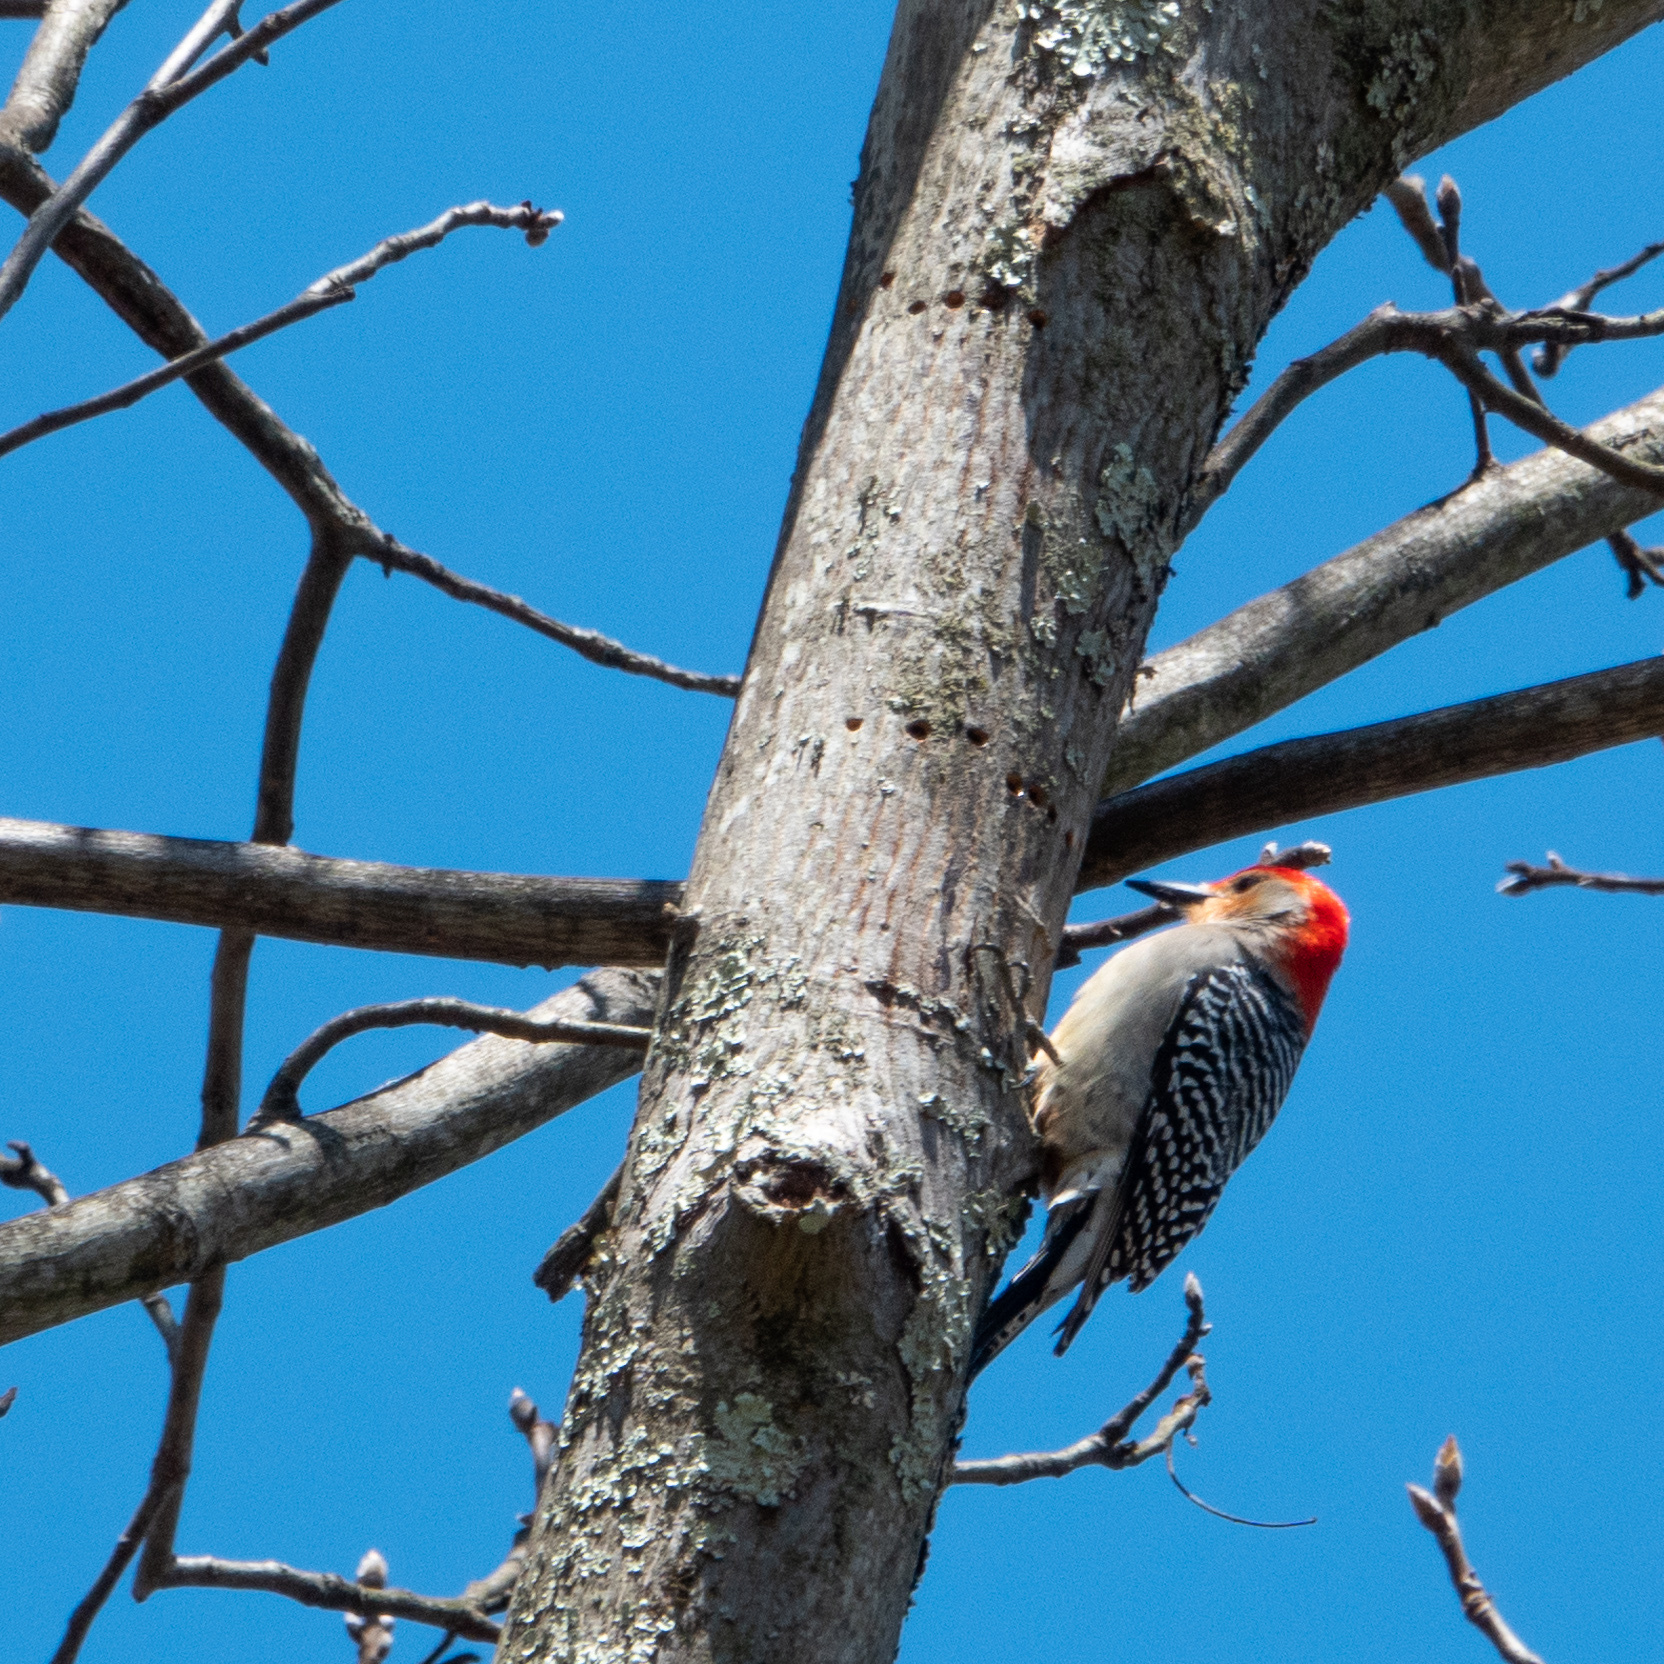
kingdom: Animalia
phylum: Chordata
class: Aves
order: Piciformes
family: Picidae
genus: Melanerpes
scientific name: Melanerpes carolinus
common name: Red-bellied woodpecker
